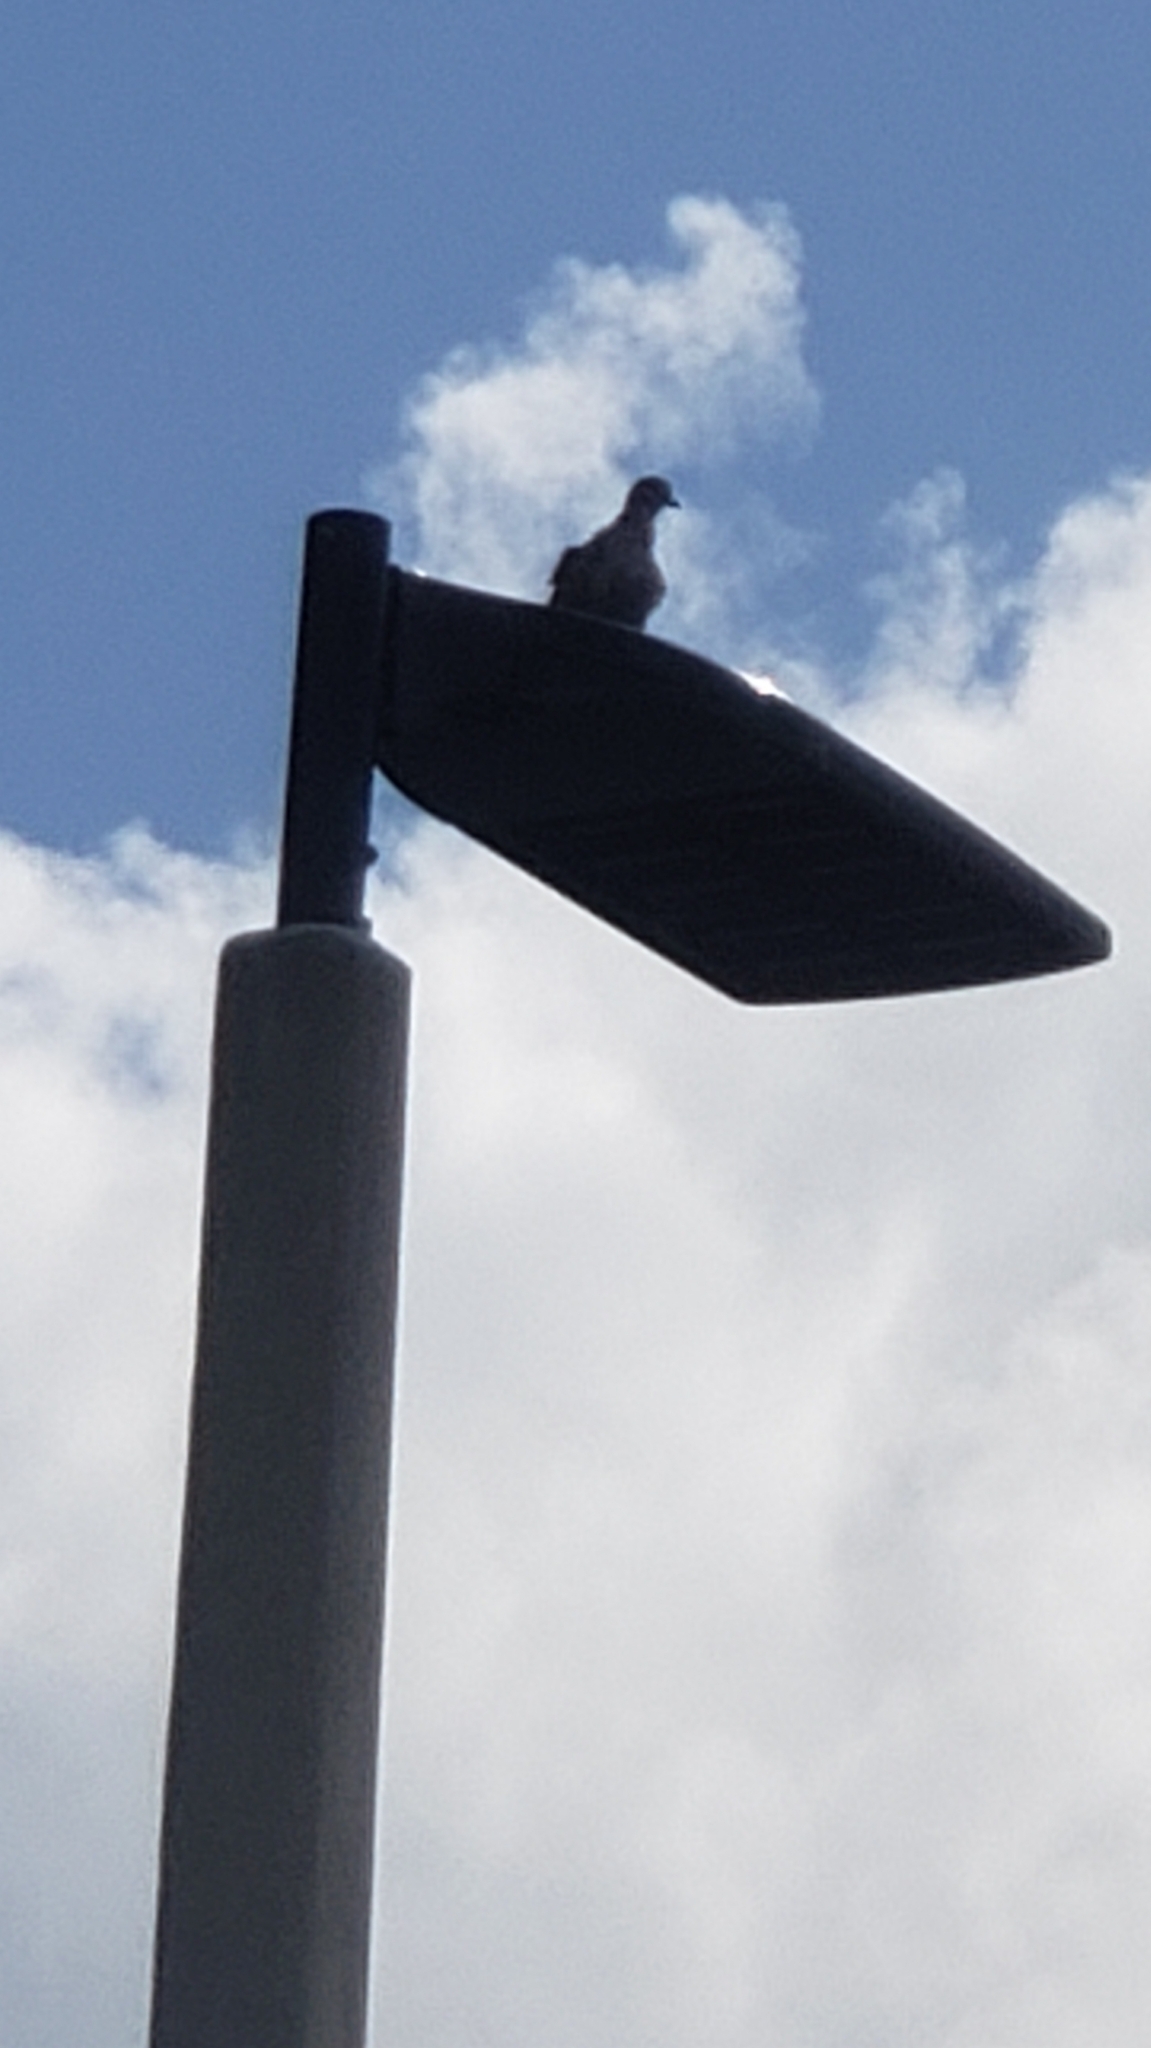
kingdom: Animalia
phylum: Chordata
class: Aves
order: Columbiformes
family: Columbidae
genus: Streptopelia
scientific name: Streptopelia decaocto
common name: Eurasian collared dove
